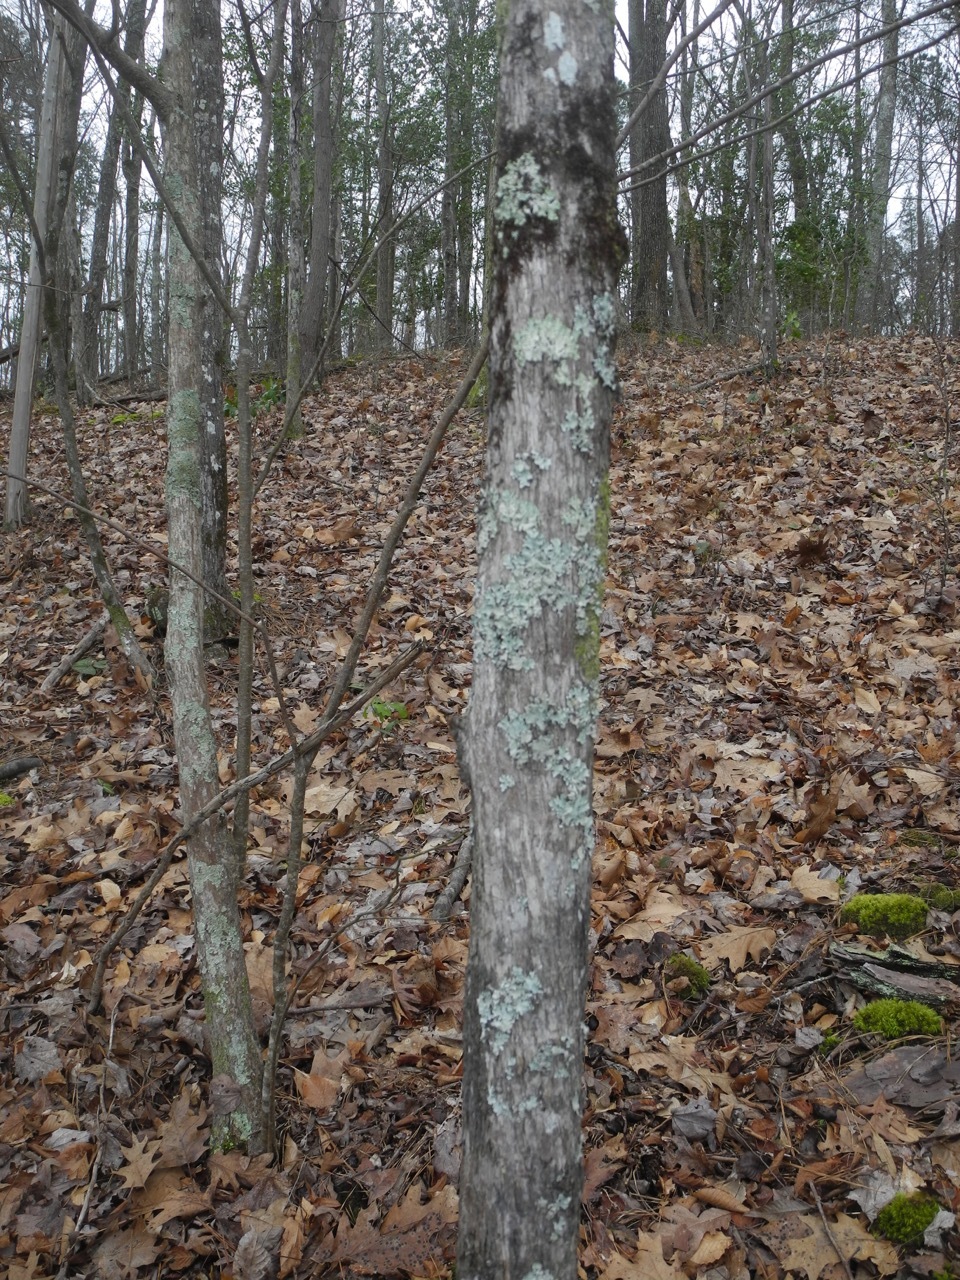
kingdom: Plantae
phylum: Tracheophyta
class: Magnoliopsida
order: Fagales
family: Betulaceae
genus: Ostrya
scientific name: Ostrya virginiana
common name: Ironwood
